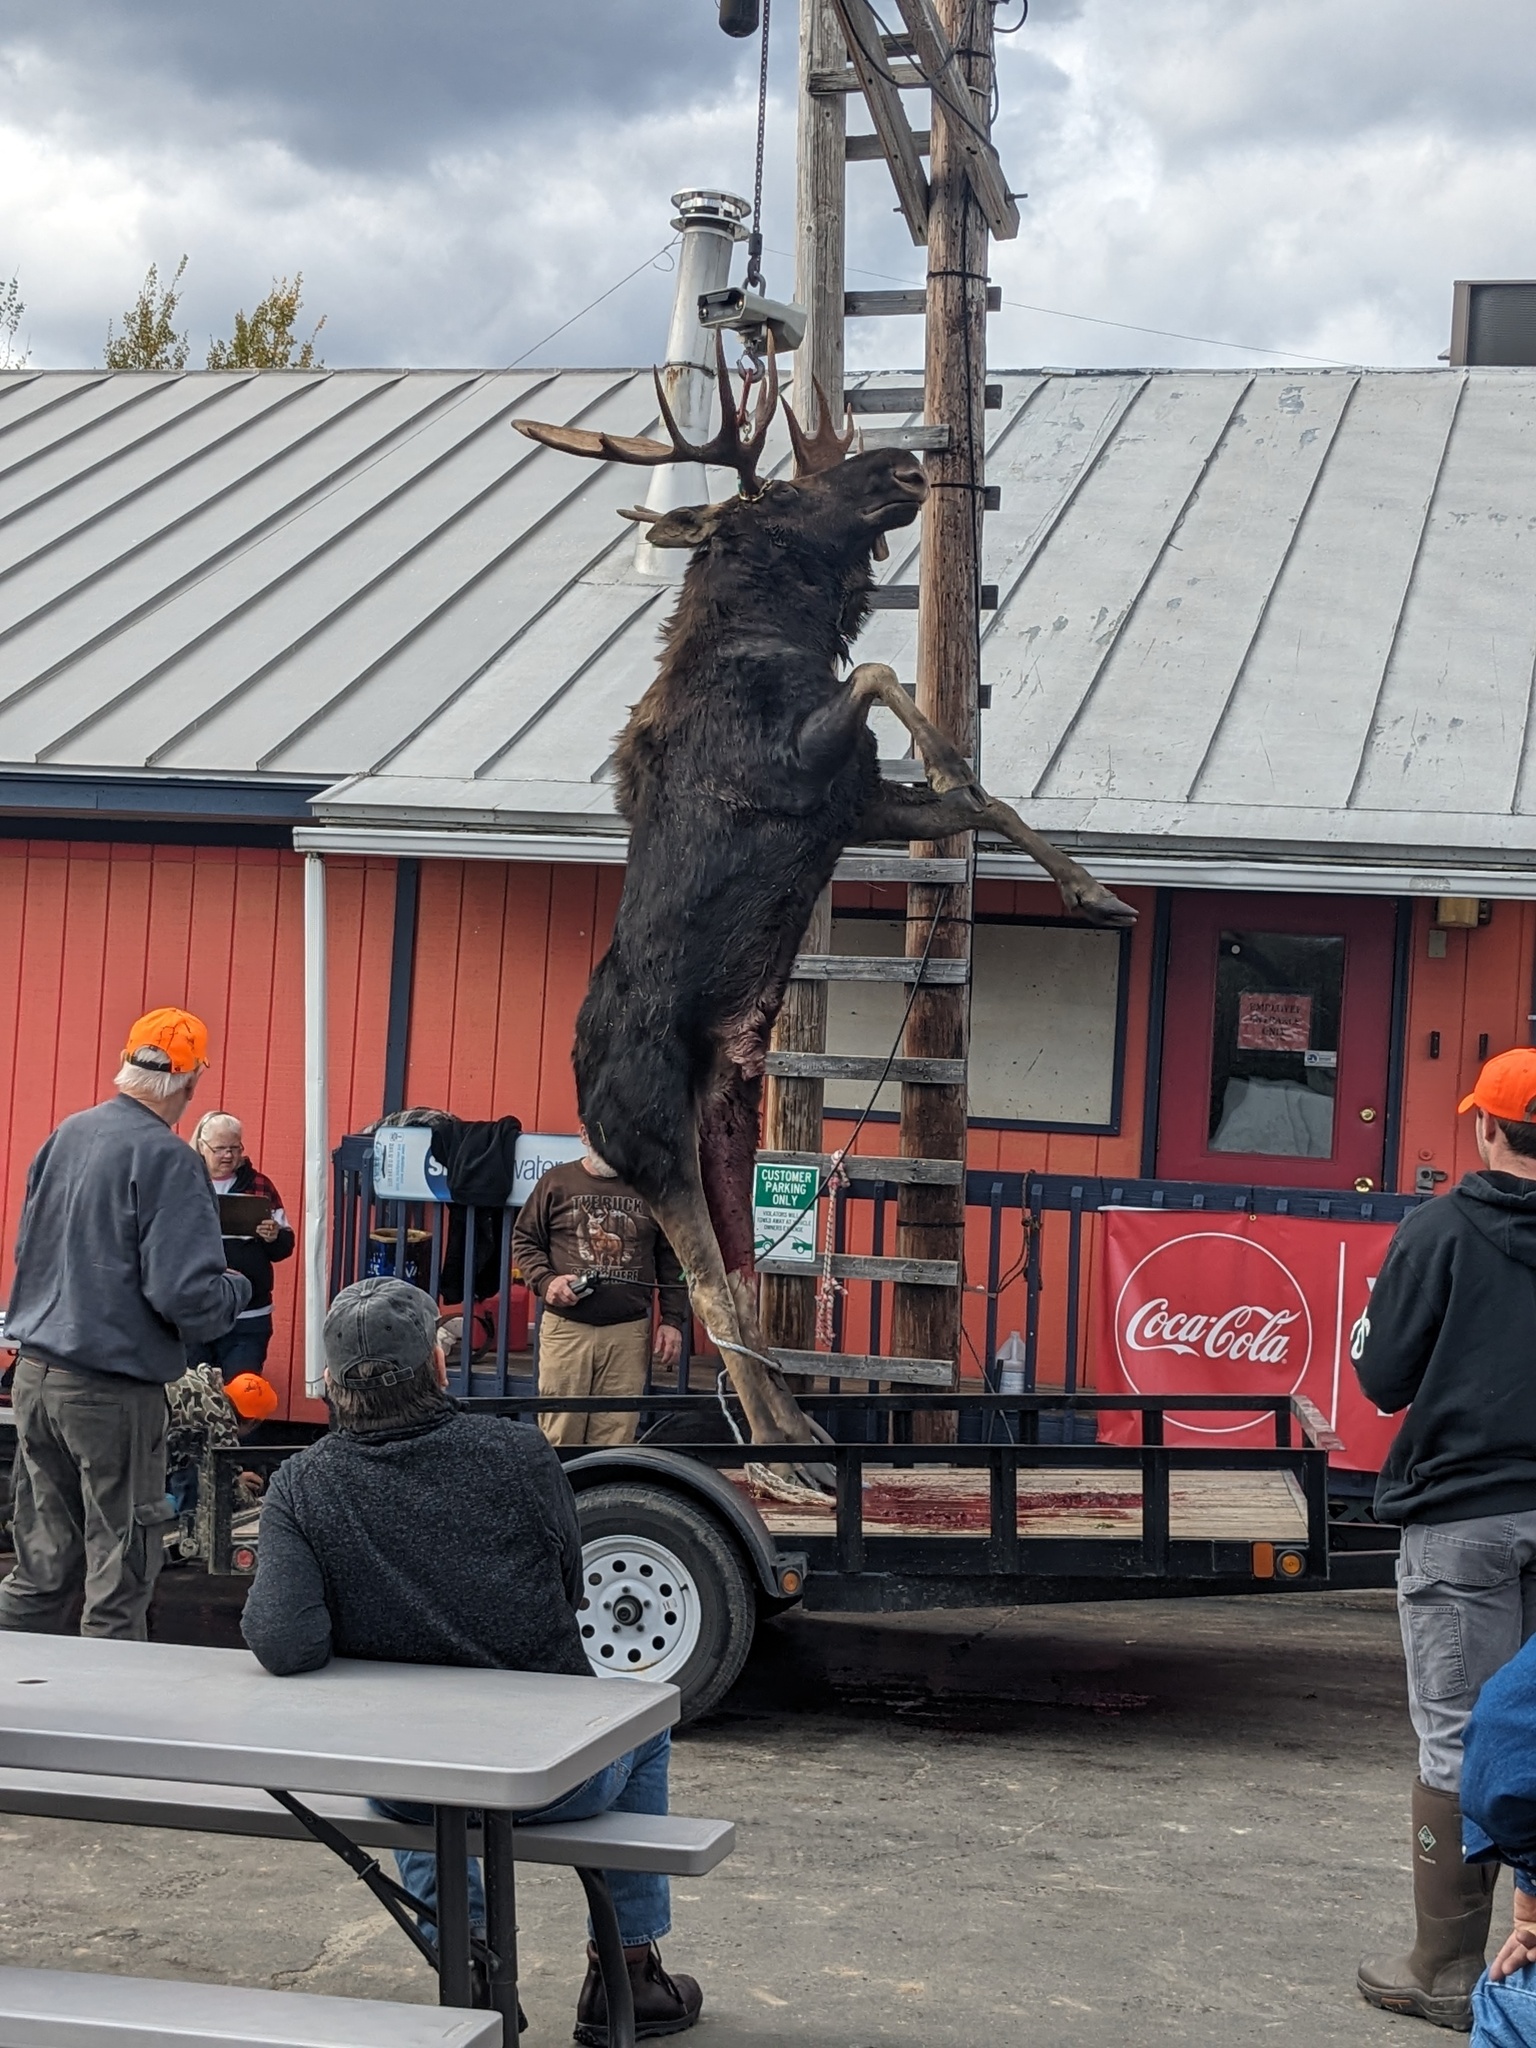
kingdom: Animalia
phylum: Chordata
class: Mammalia
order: Artiodactyla
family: Cervidae
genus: Alces
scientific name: Alces alces
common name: Moose
